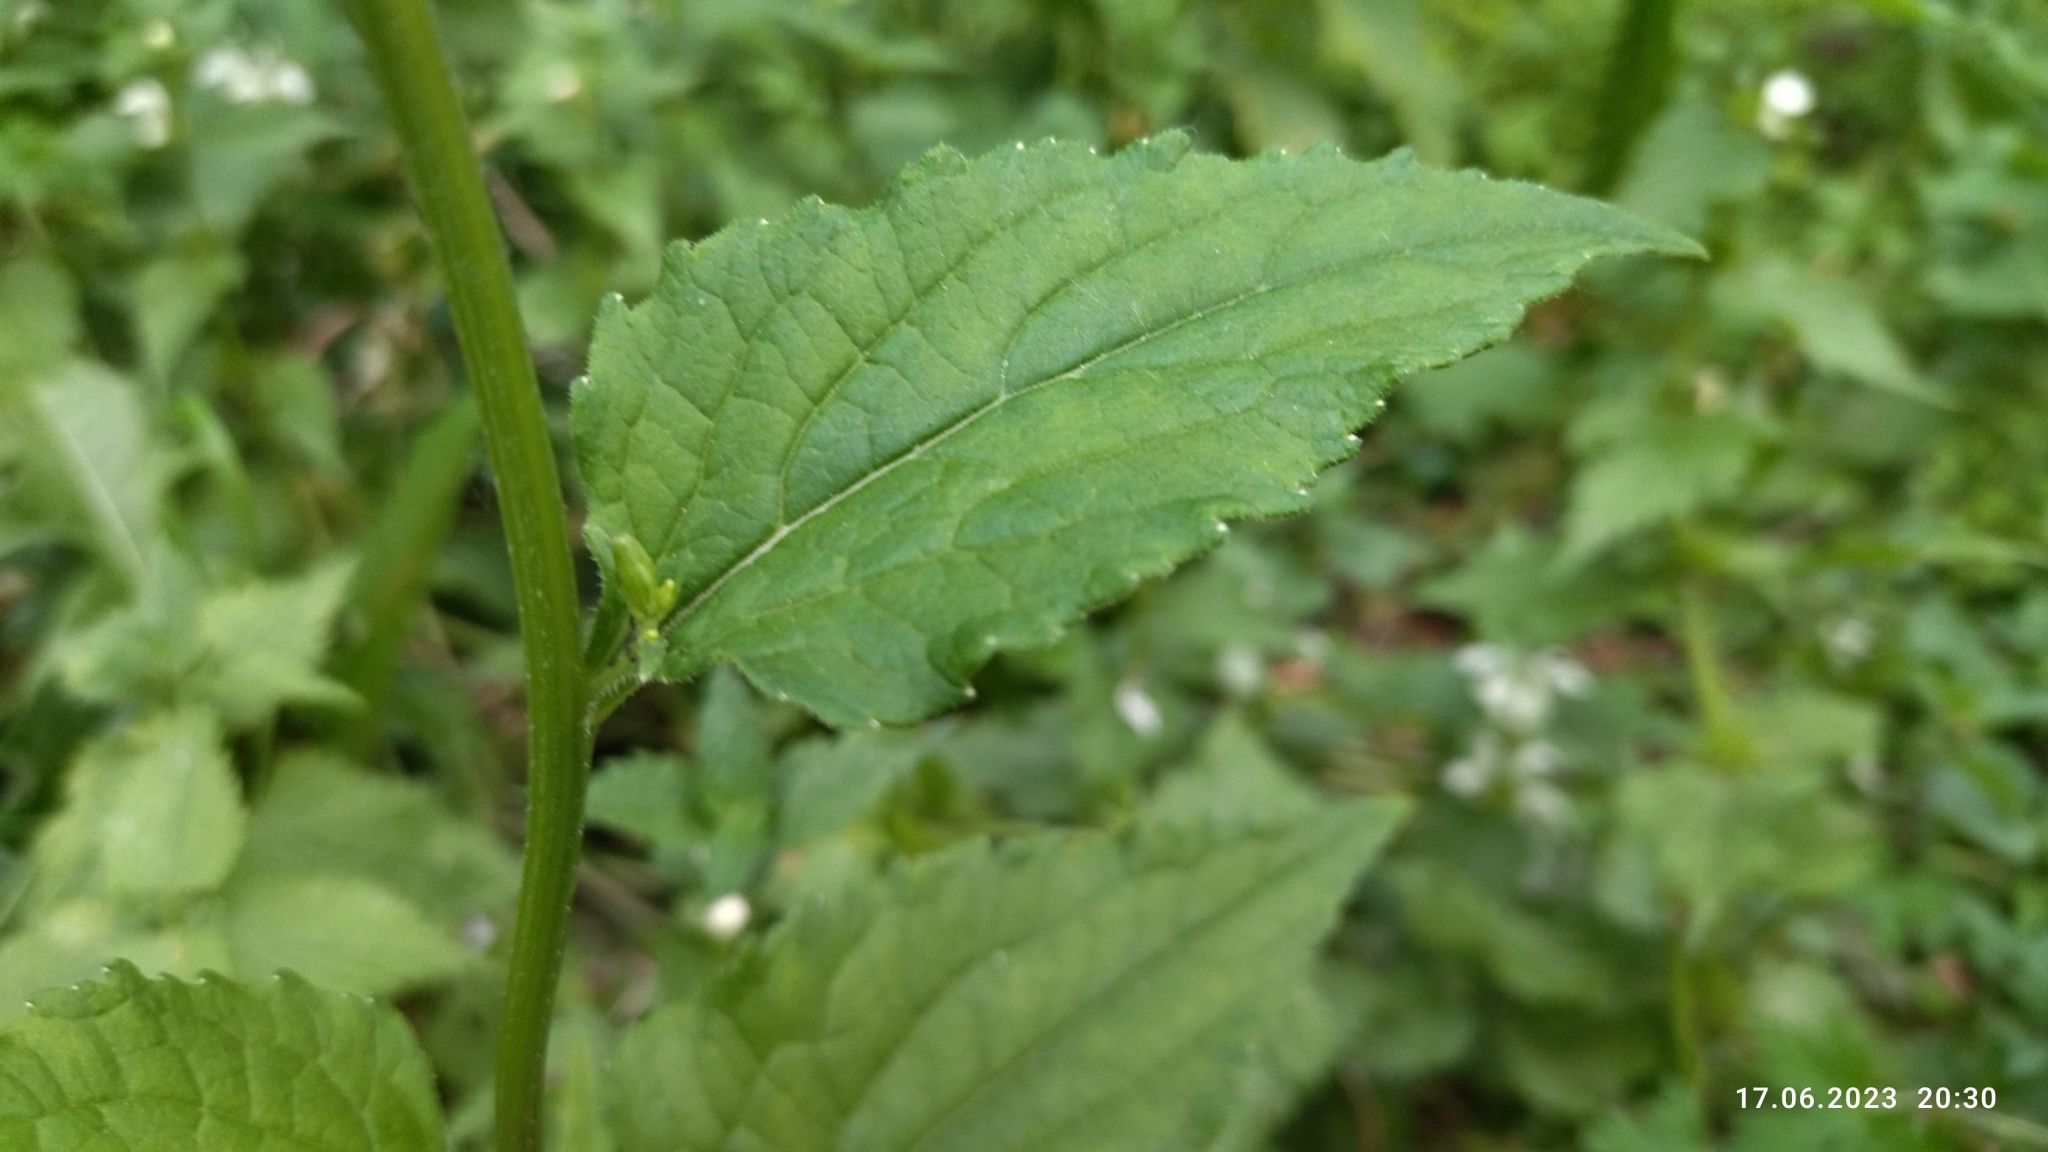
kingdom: Plantae
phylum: Tracheophyta
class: Magnoliopsida
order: Asterales
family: Campanulaceae
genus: Campanula
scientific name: Campanula rapunculoides
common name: Creeping bellflower
